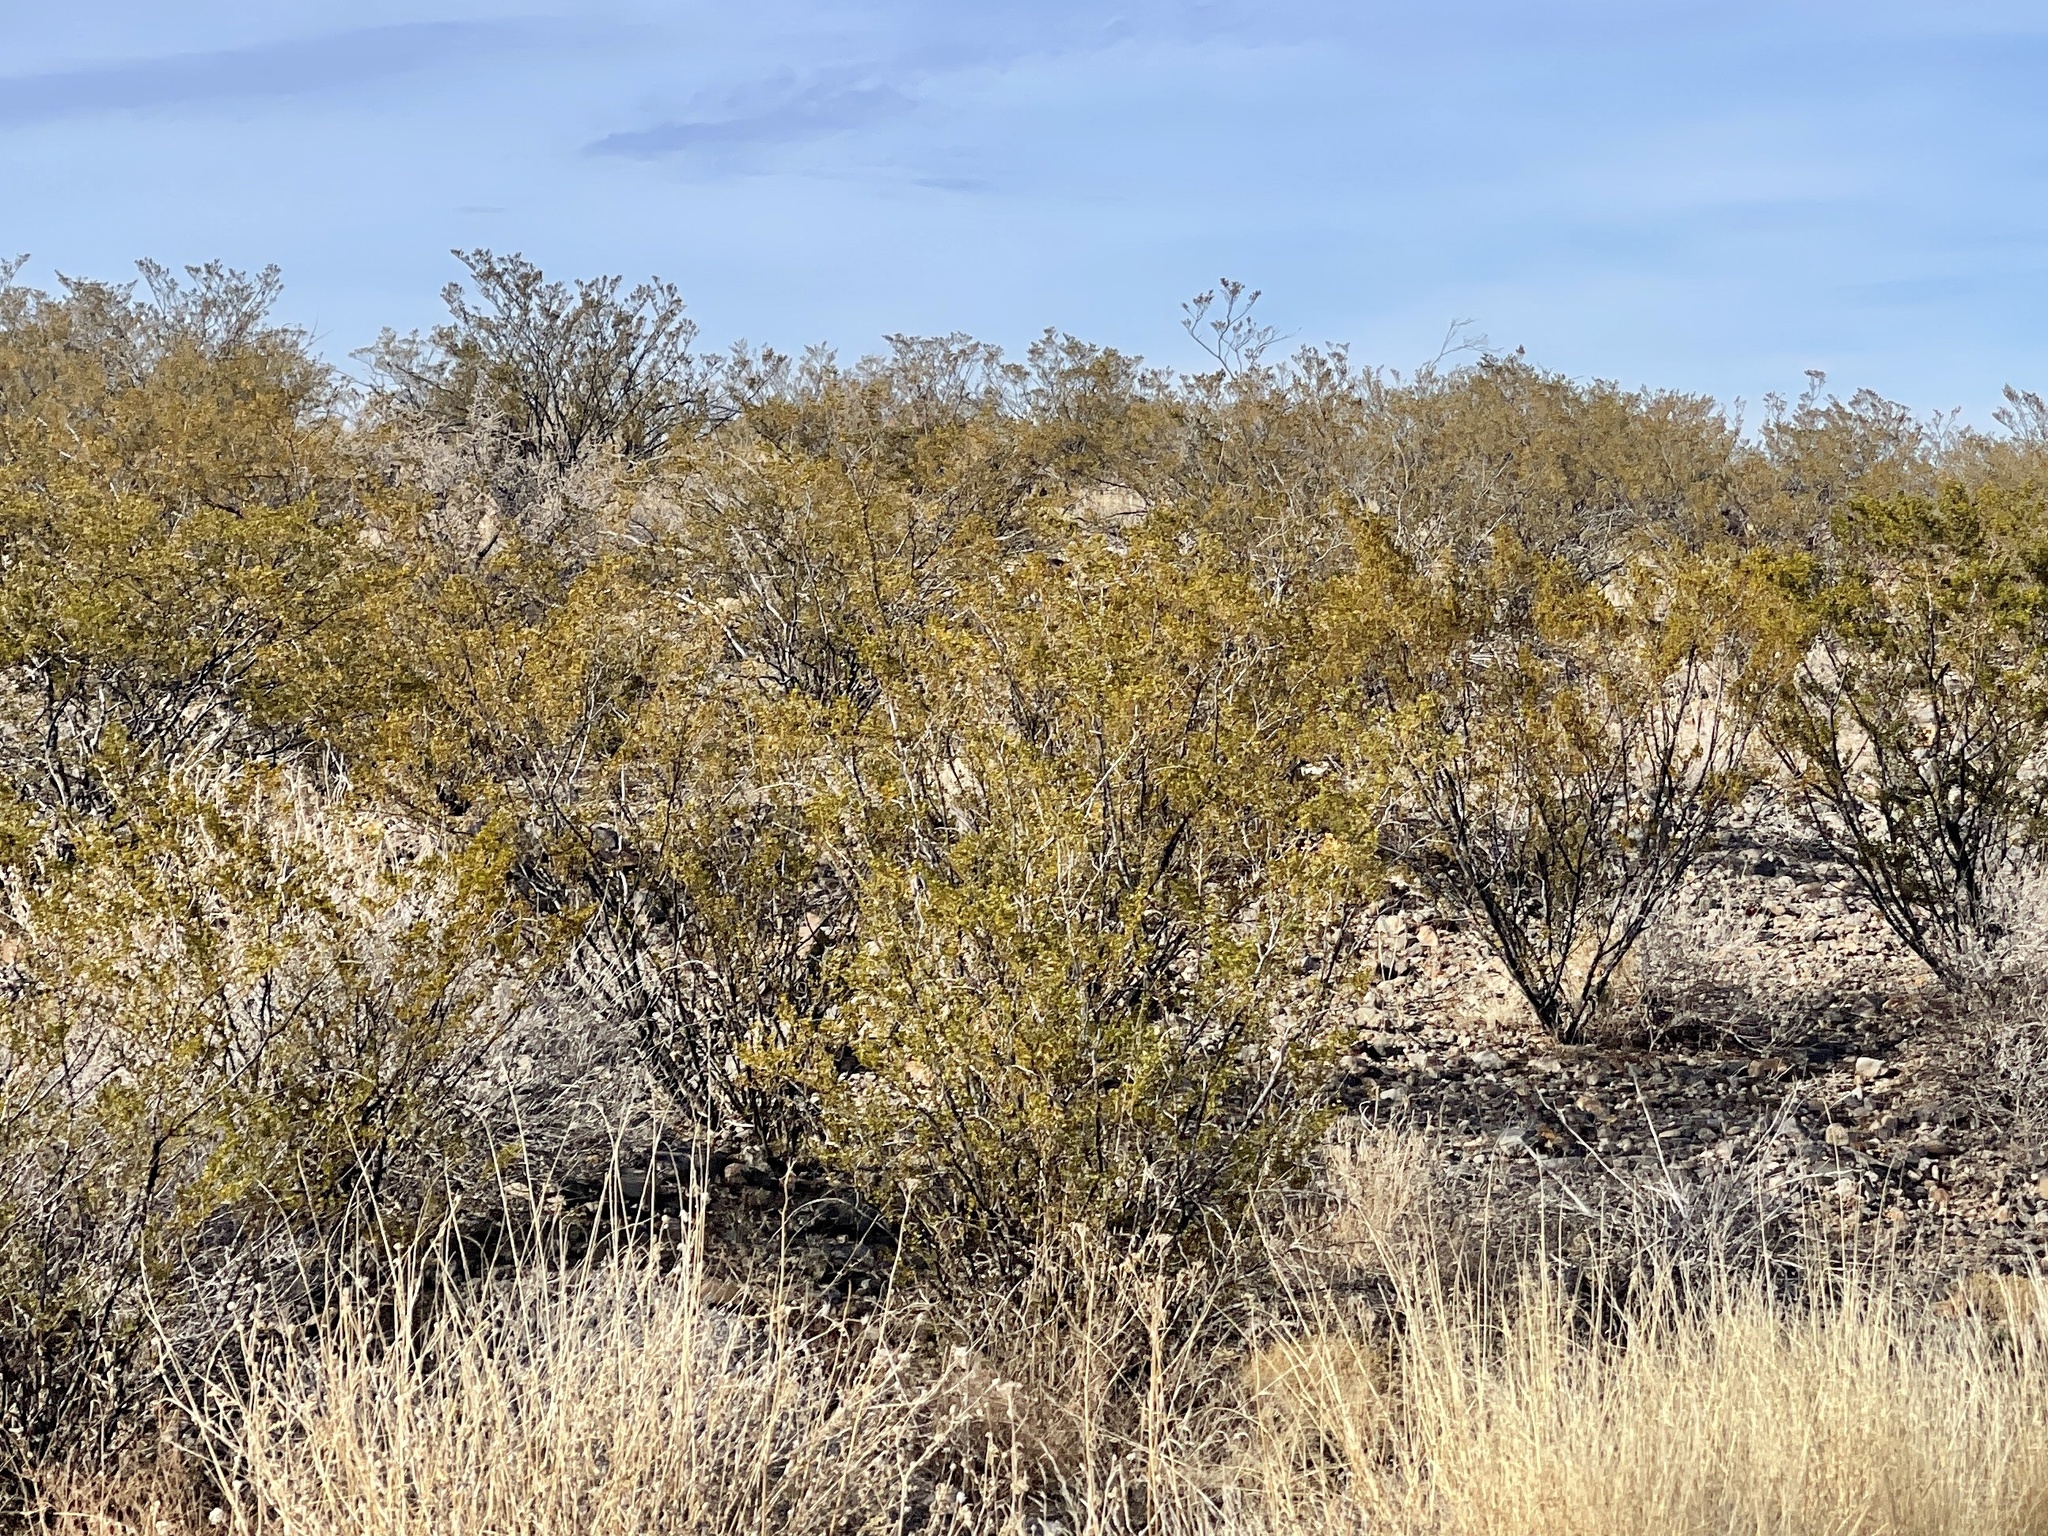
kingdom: Plantae
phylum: Tracheophyta
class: Magnoliopsida
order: Zygophyllales
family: Zygophyllaceae
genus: Larrea
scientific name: Larrea tridentata
